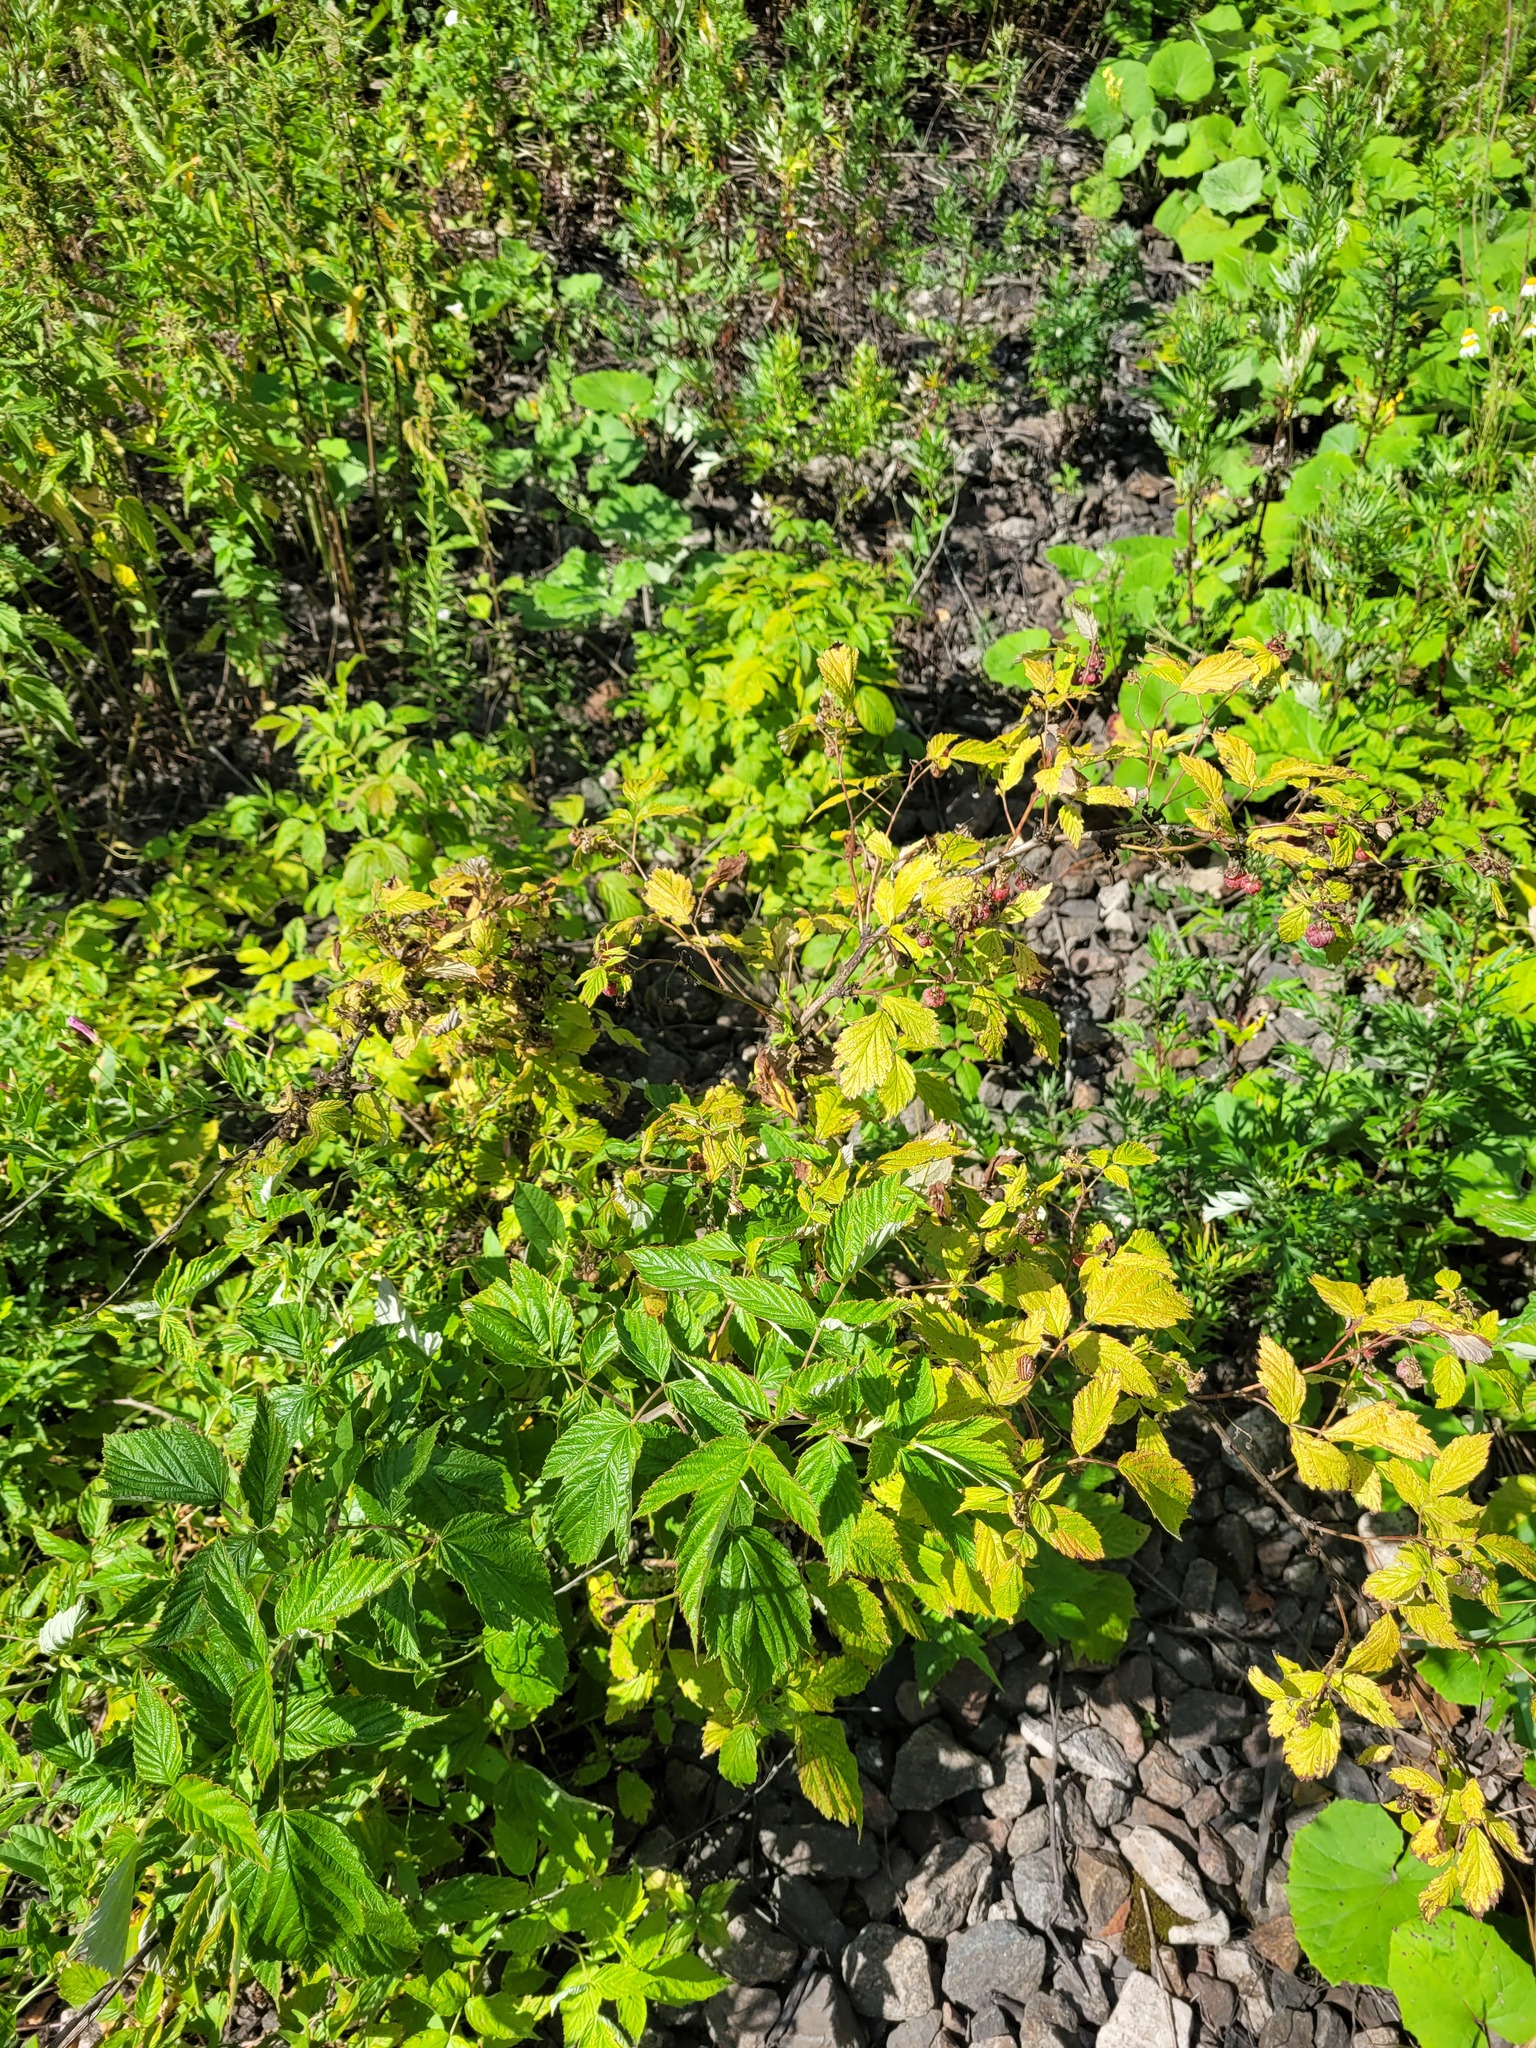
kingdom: Plantae
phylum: Tracheophyta
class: Magnoliopsida
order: Rosales
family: Rosaceae
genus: Rubus
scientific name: Rubus idaeus
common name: Raspberry
